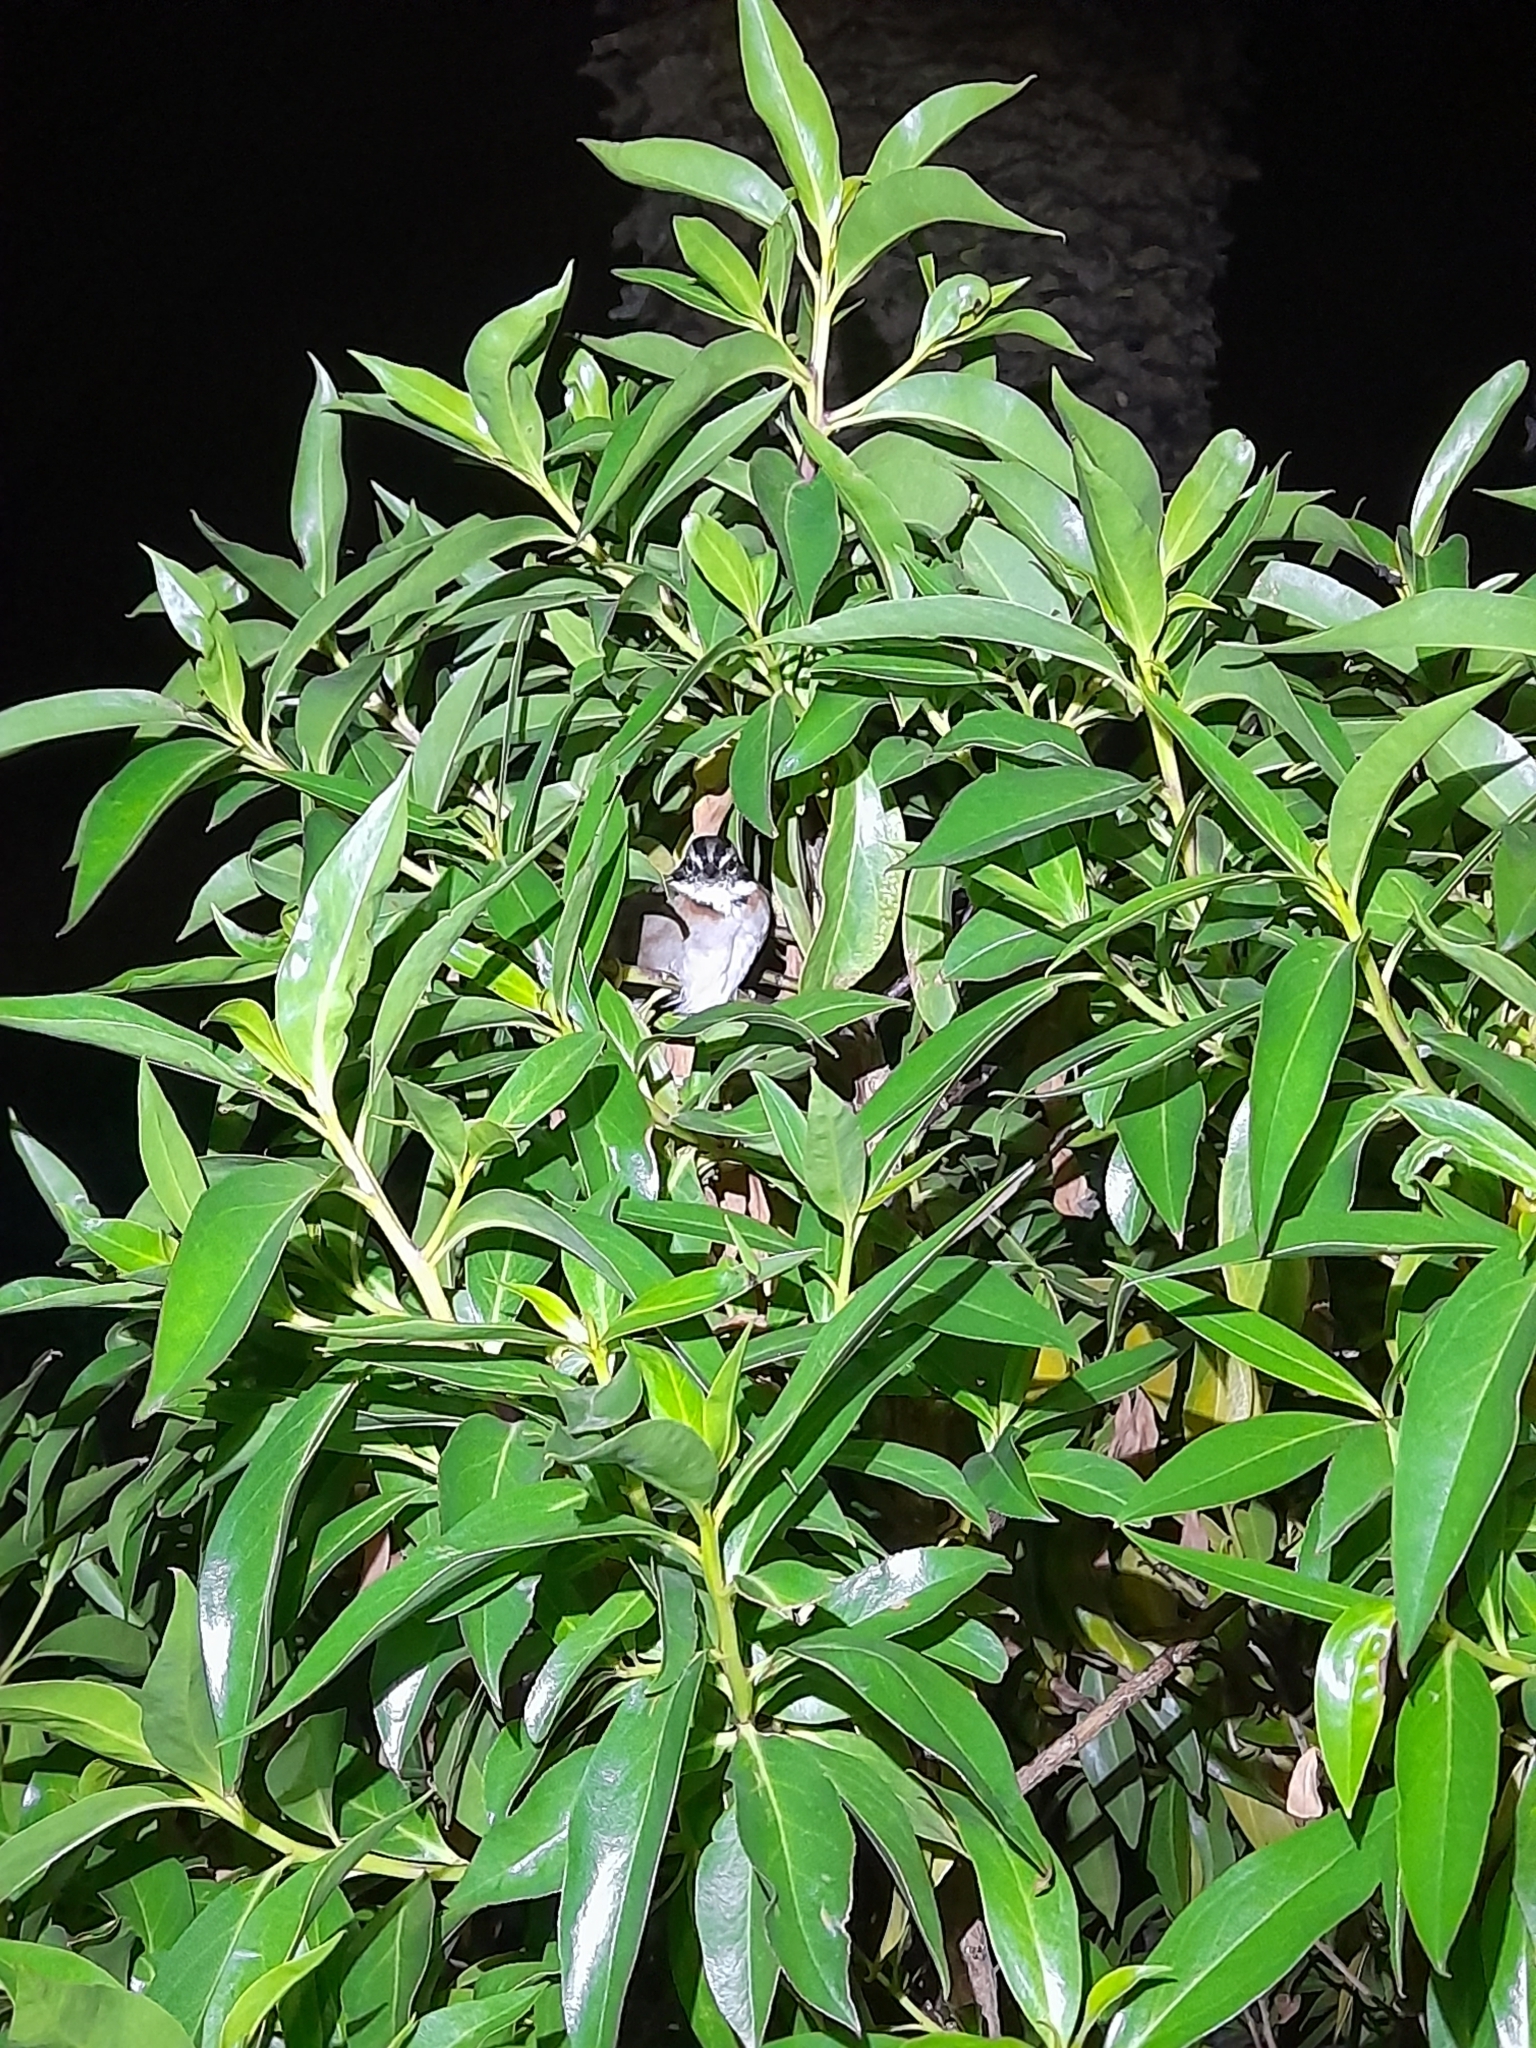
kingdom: Animalia
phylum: Chordata
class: Aves
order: Passeriformes
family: Passerellidae
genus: Zonotrichia
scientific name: Zonotrichia capensis
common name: Rufous-collared sparrow
